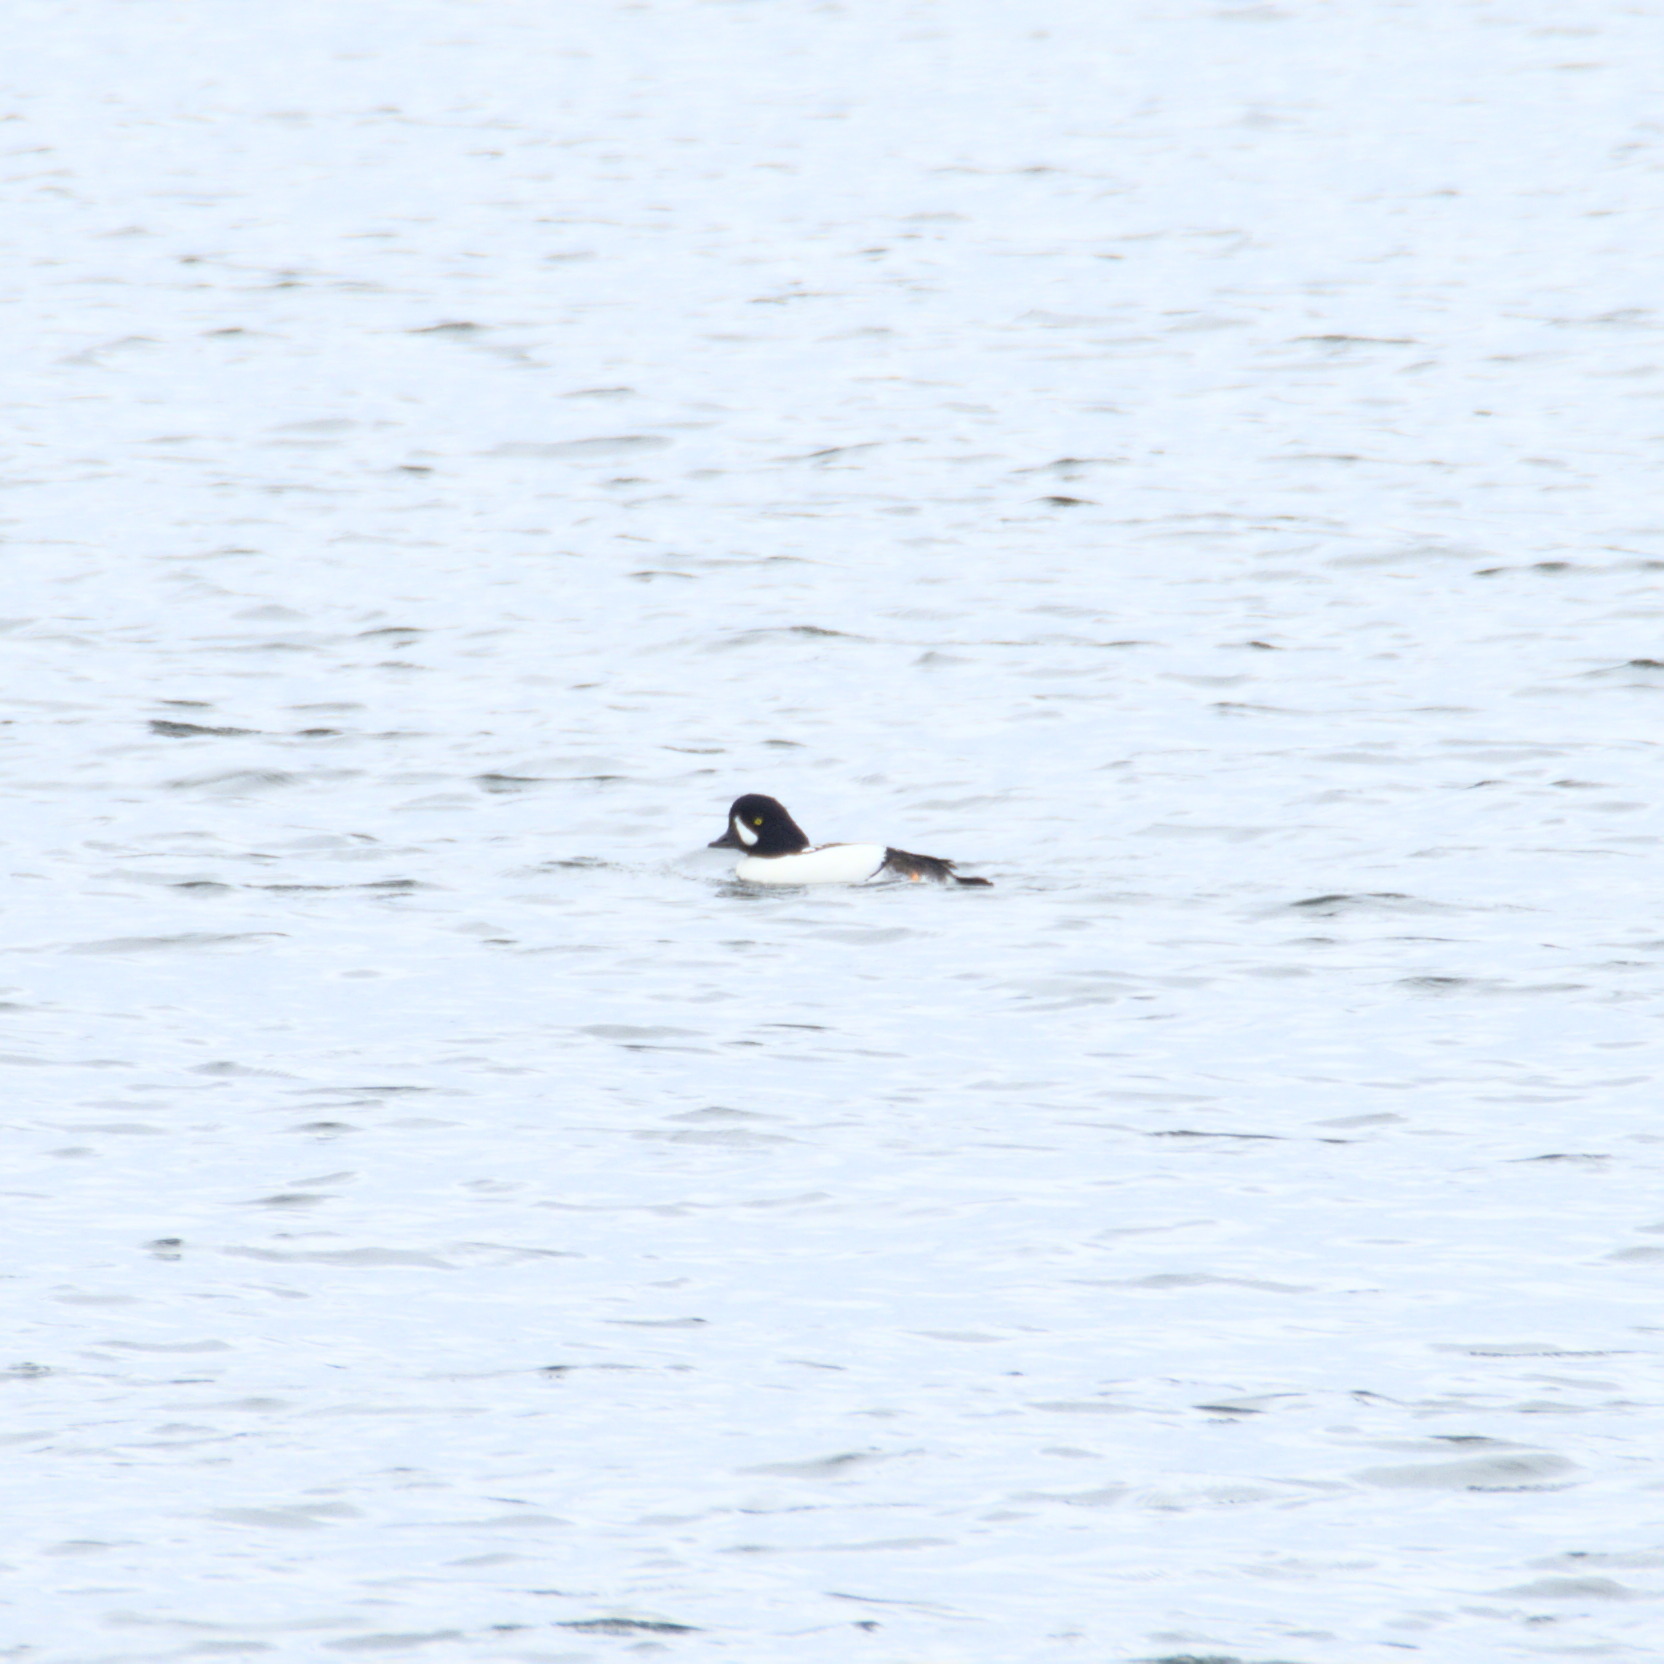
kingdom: Animalia
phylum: Chordata
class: Aves
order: Anseriformes
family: Anatidae
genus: Bucephala
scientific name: Bucephala islandica
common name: Barrow's goldeneye
